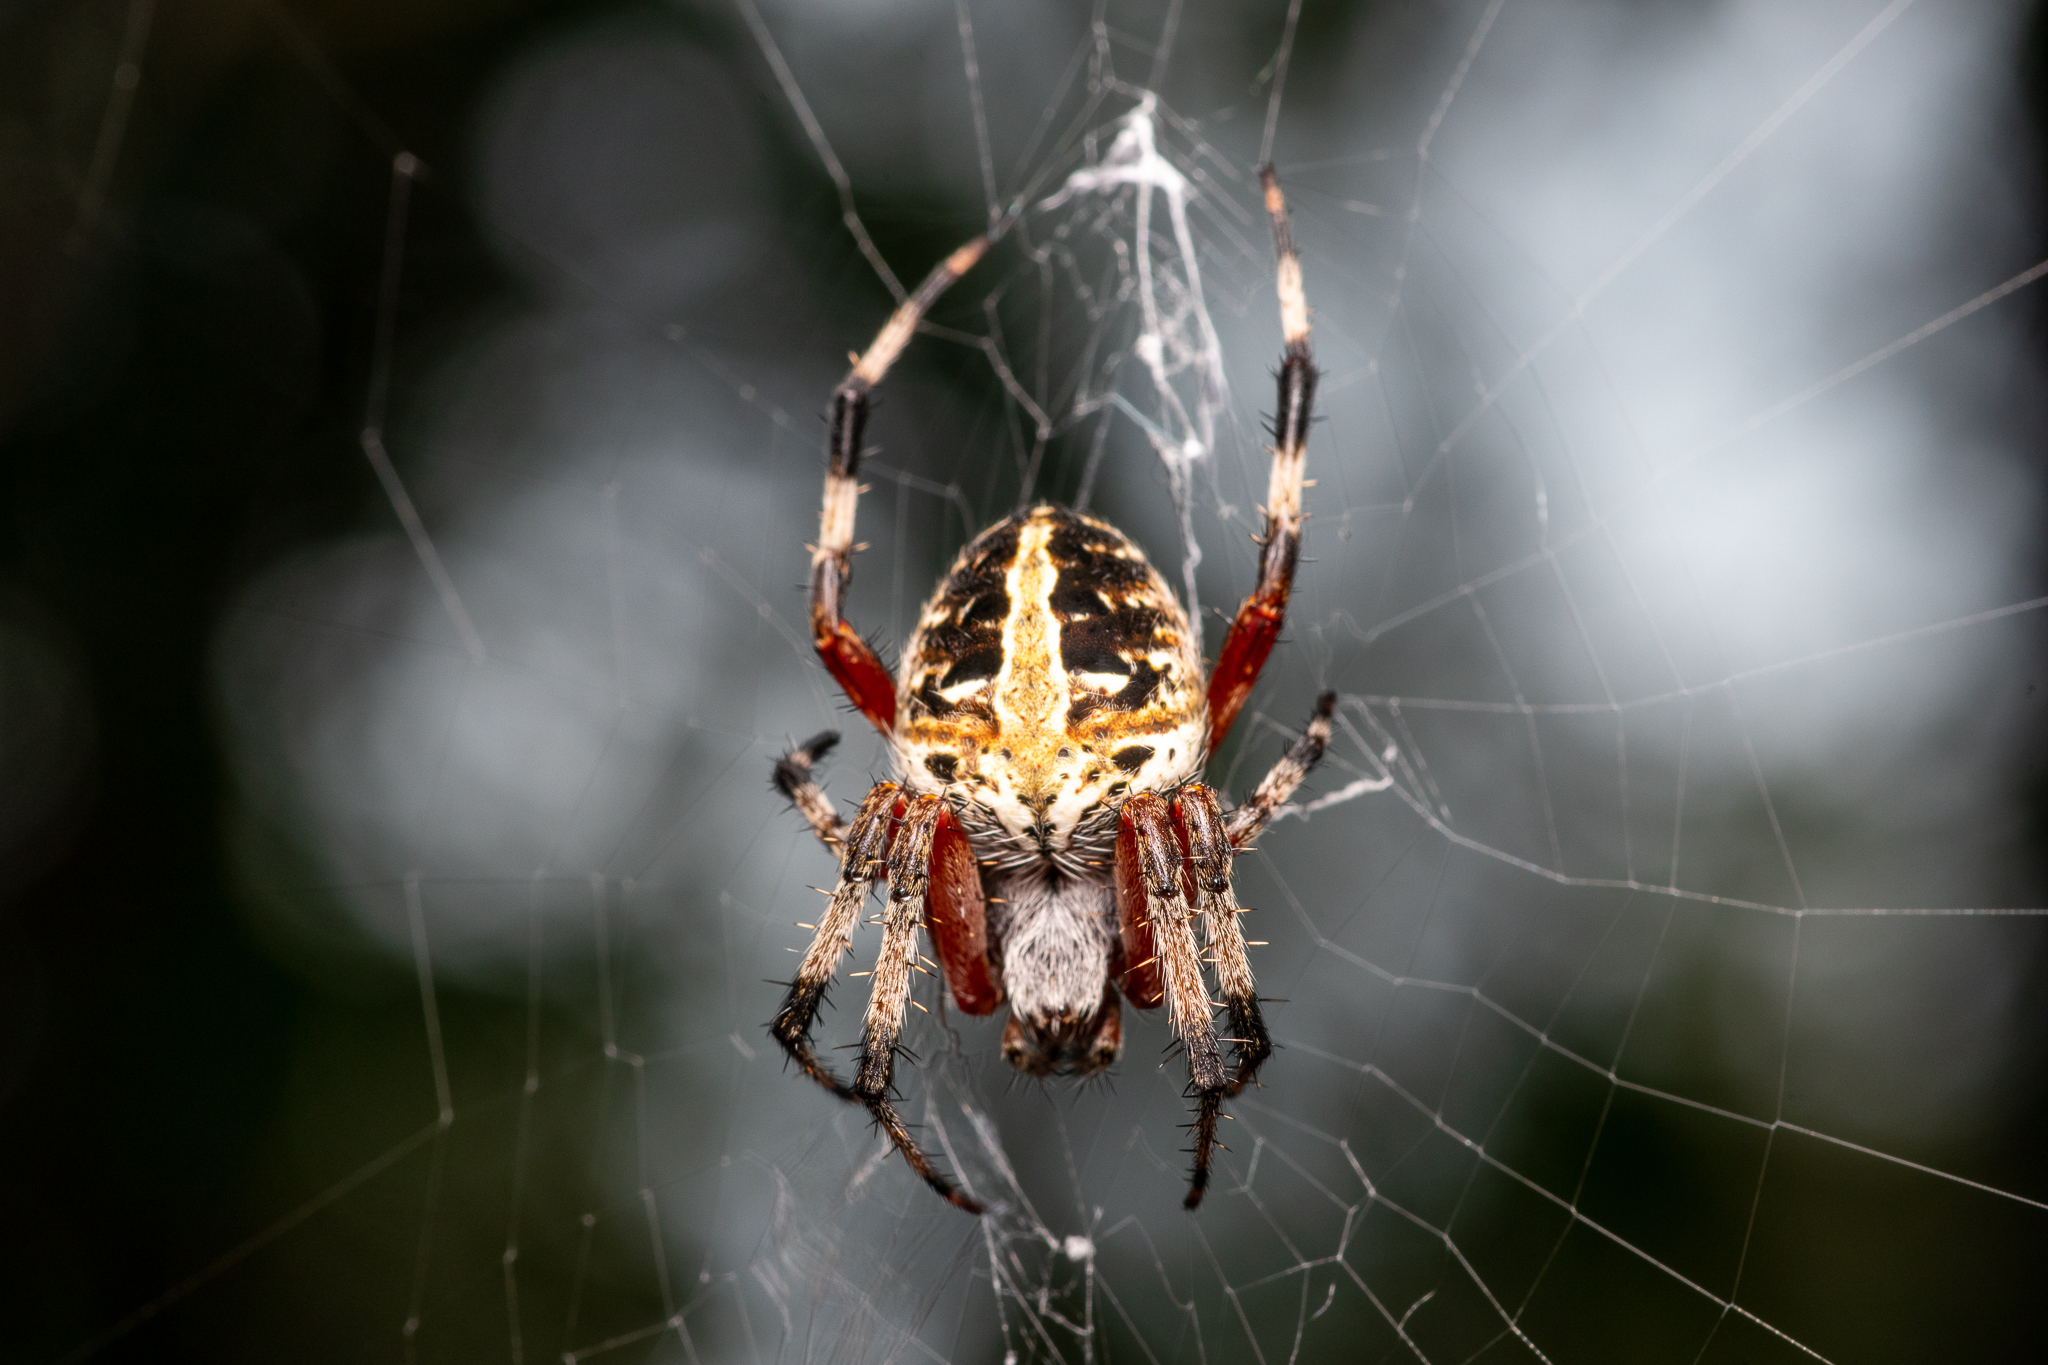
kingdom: Animalia
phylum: Arthropoda
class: Arachnida
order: Araneae
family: Araneidae
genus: Neoscona
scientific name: Neoscona domiciliorum
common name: Red-femured spotted orbweaver
